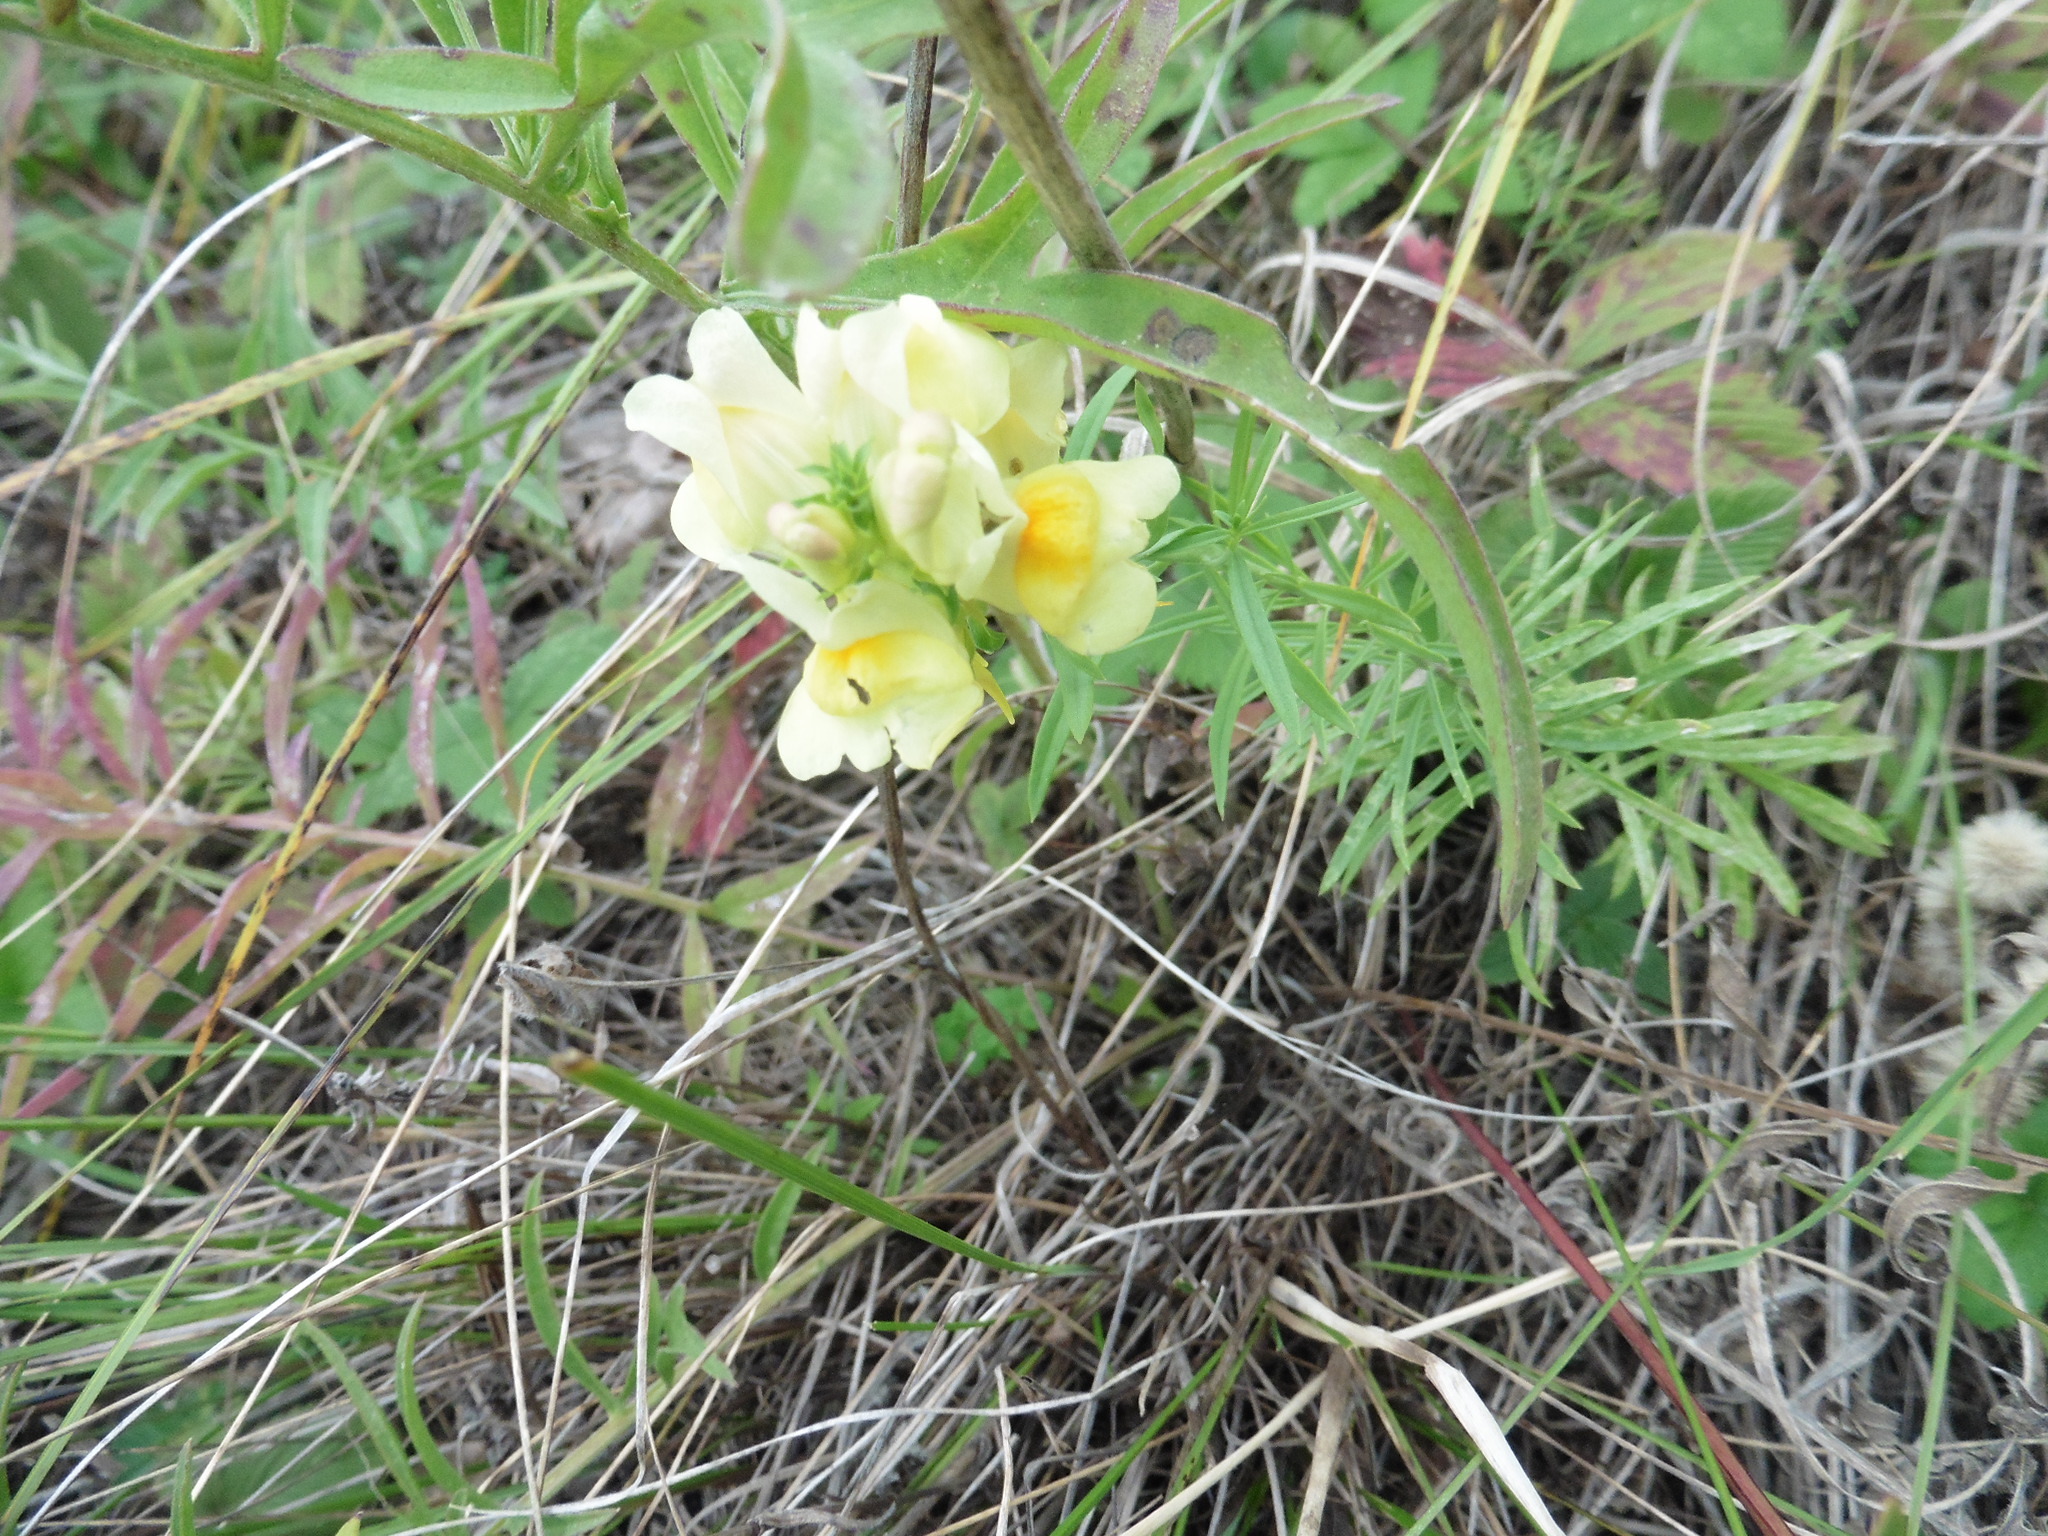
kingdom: Plantae
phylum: Tracheophyta
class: Magnoliopsida
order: Lamiales
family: Plantaginaceae
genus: Linaria
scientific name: Linaria vulgaris
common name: Butter and eggs
